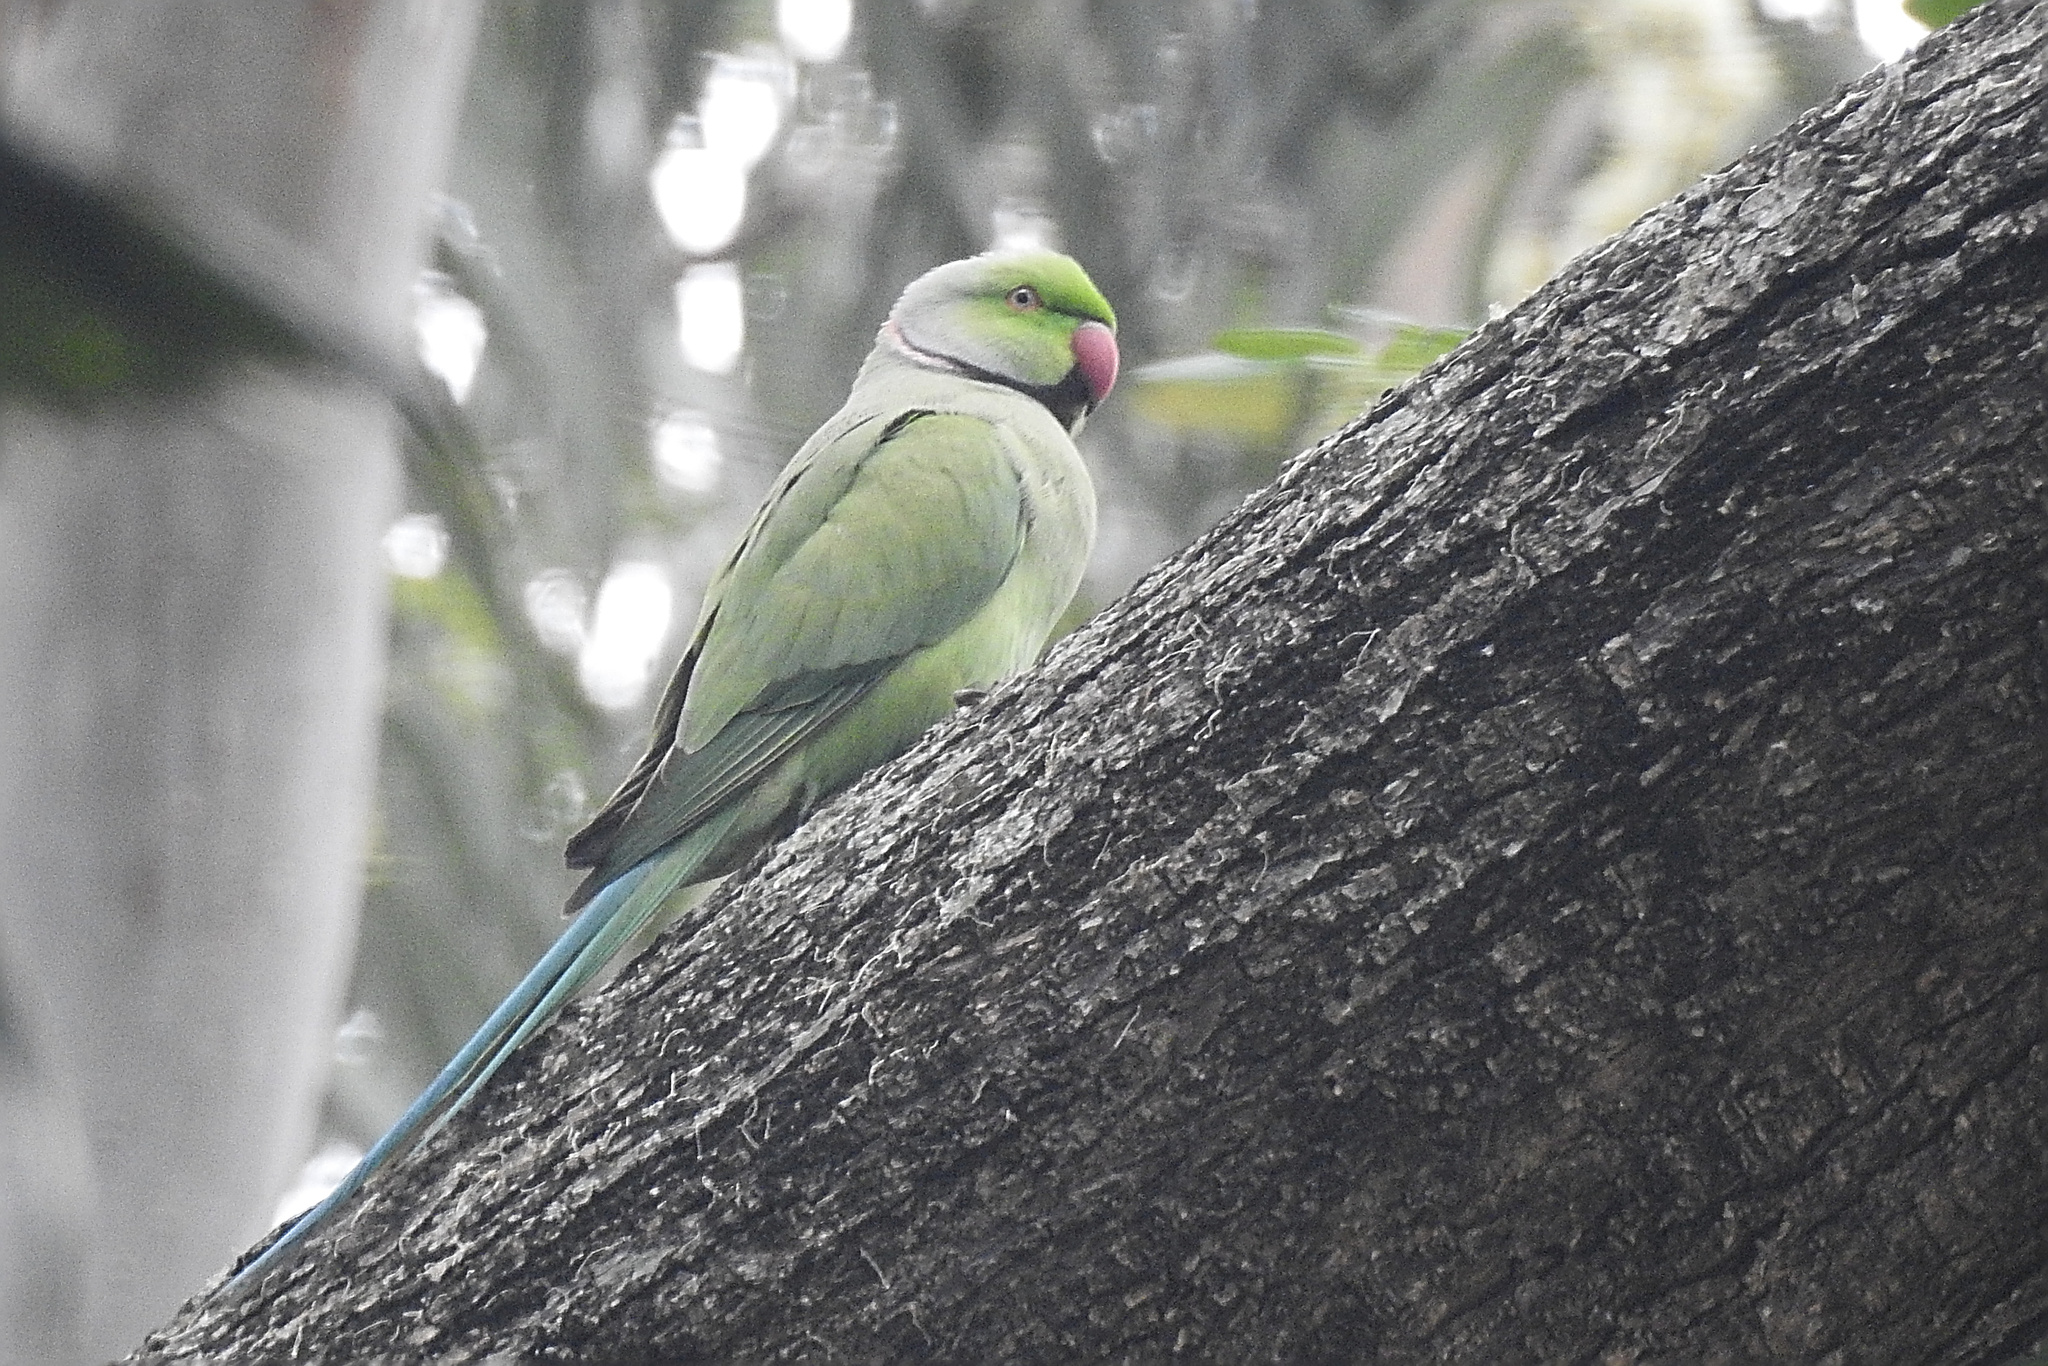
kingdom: Animalia
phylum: Chordata
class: Aves
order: Psittaciformes
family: Psittacidae
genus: Psittacula
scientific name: Psittacula krameri
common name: Rose-ringed parakeet
